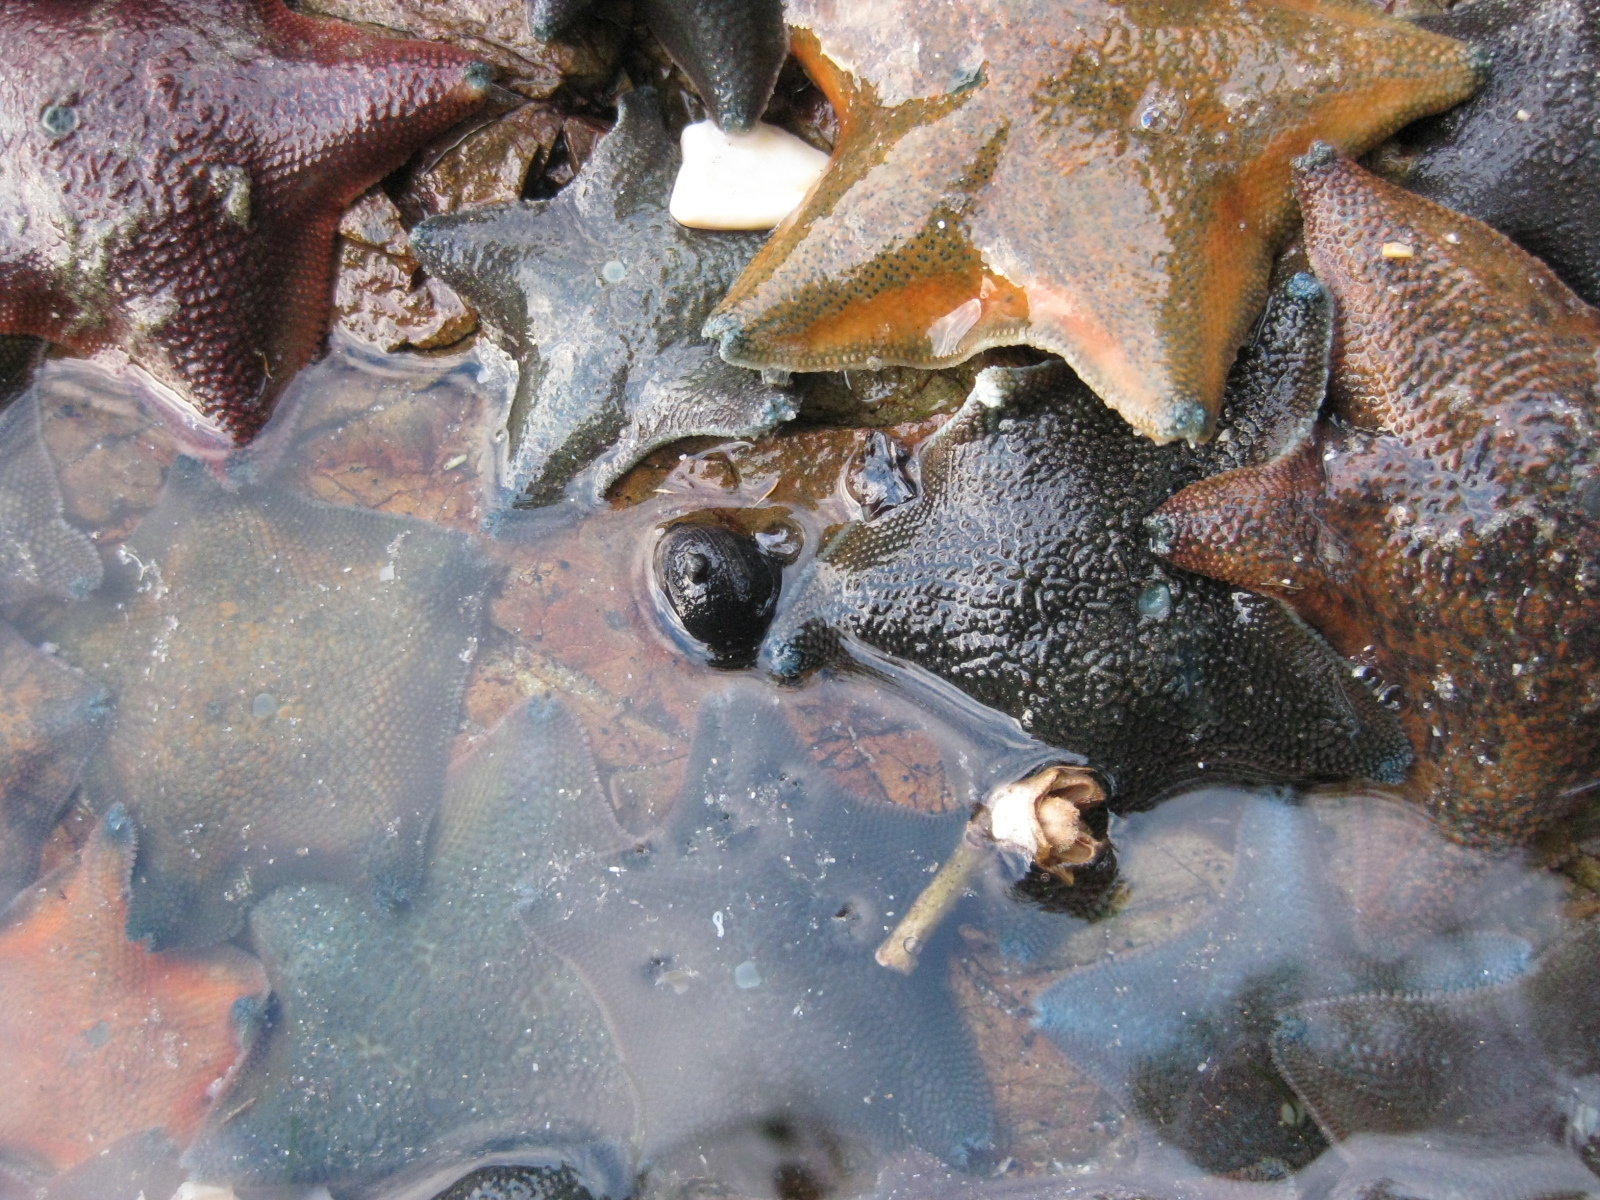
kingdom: Animalia
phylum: Echinodermata
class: Asteroidea
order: Valvatida
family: Asterinidae
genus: Patiriella
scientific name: Patiriella regularis
